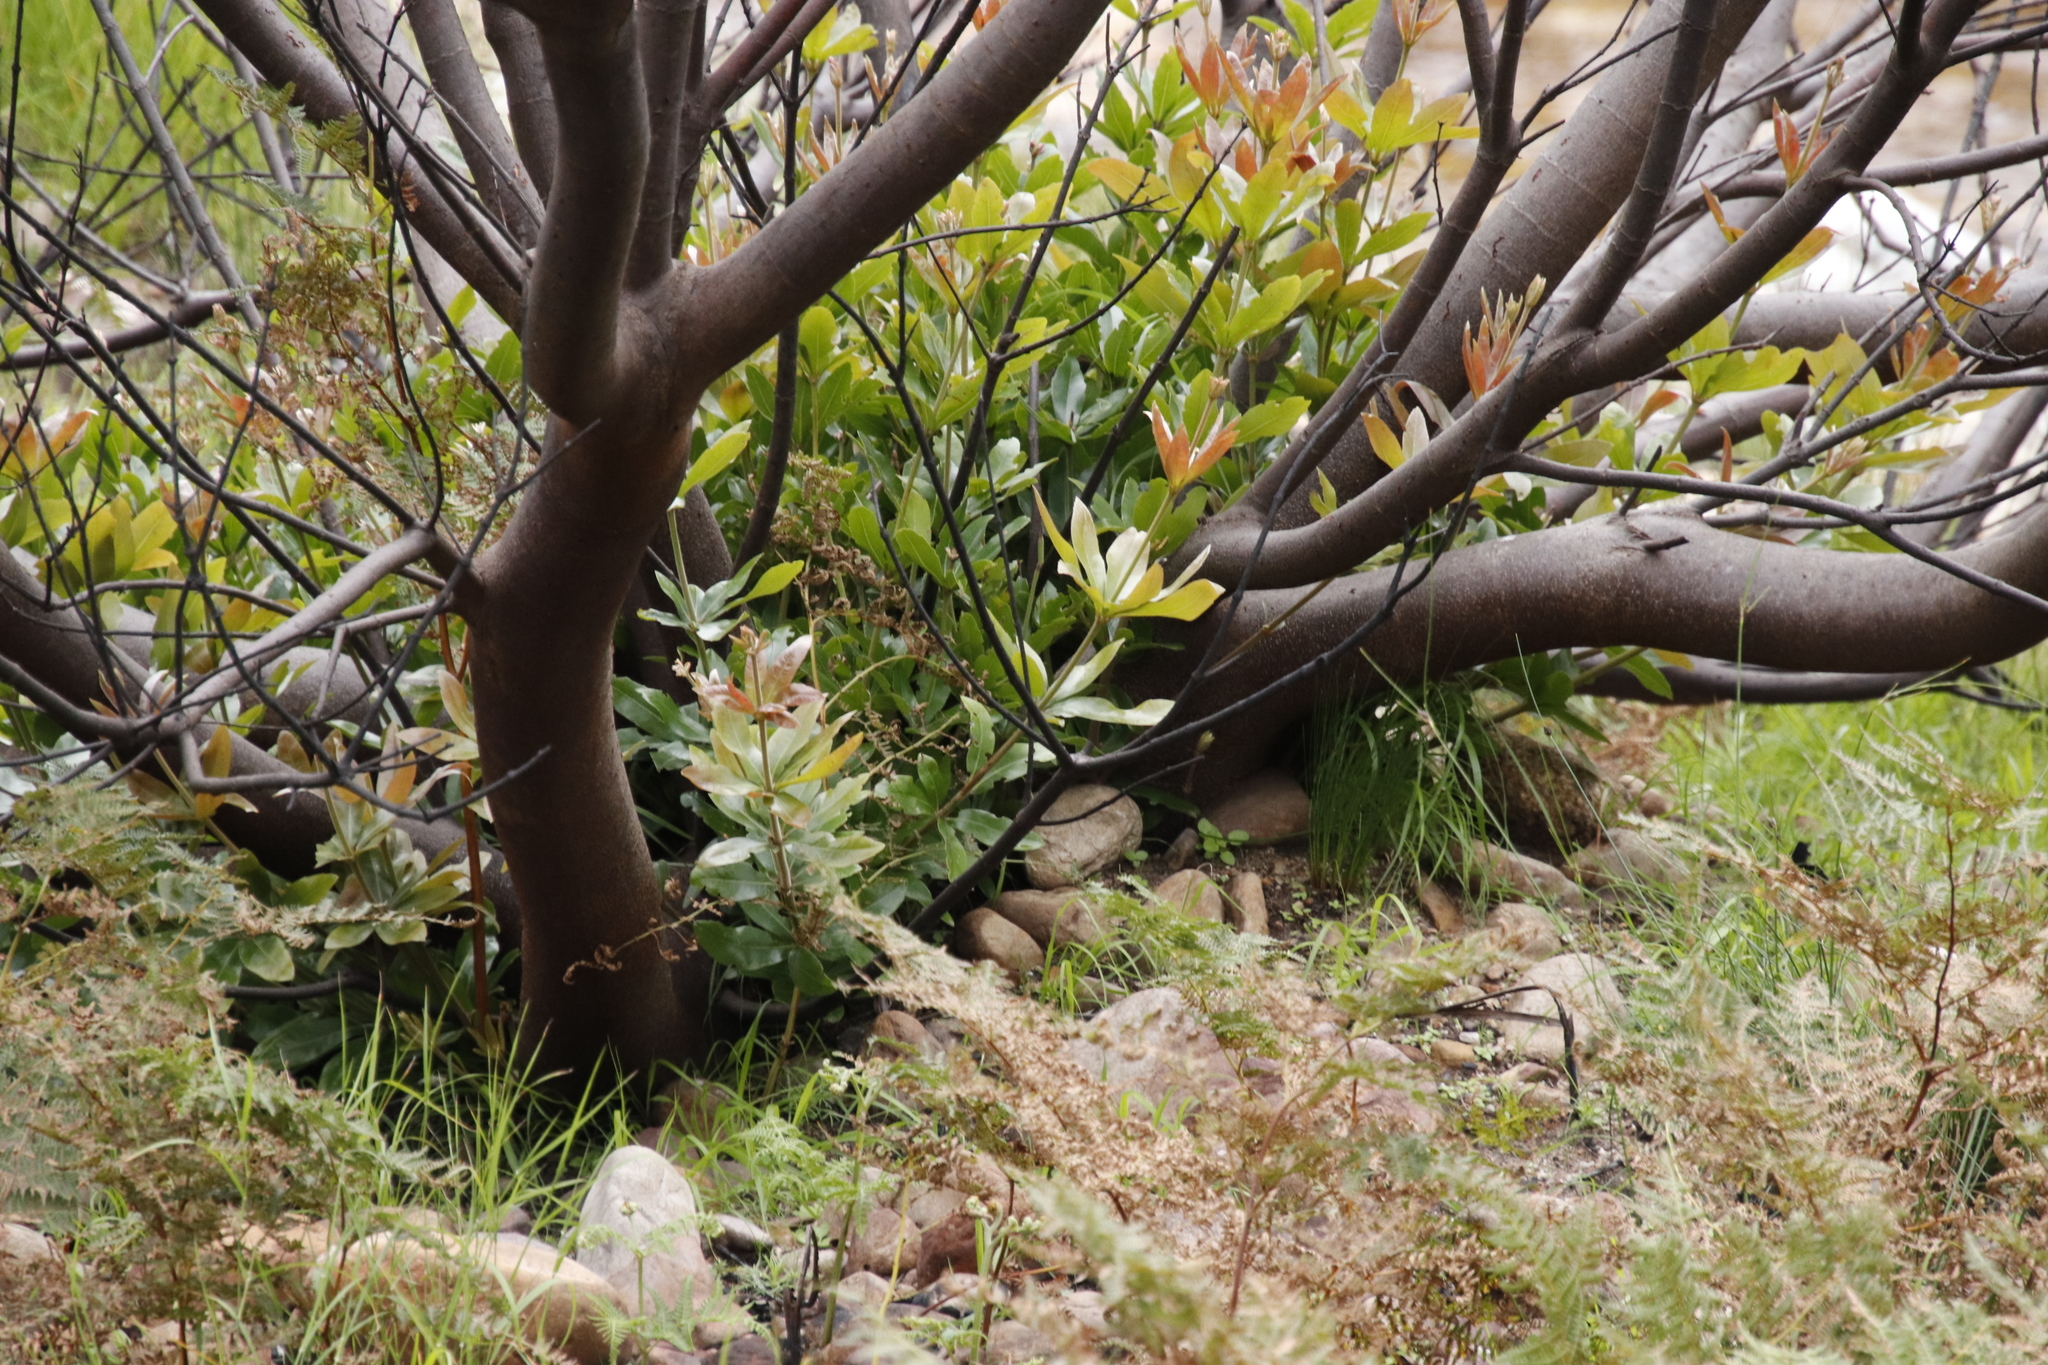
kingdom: Plantae
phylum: Tracheophyta
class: Magnoliopsida
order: Proteales
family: Proteaceae
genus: Brabejum
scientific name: Brabejum stellatifolium
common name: Wild almond
